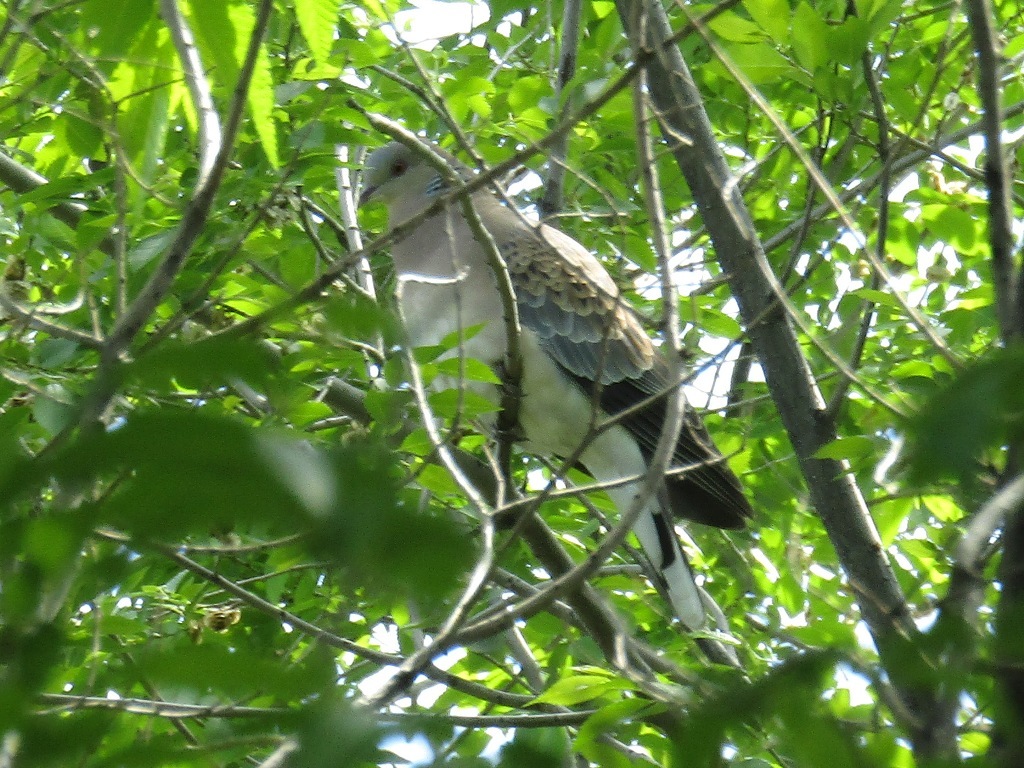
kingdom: Animalia
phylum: Chordata
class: Aves
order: Columbiformes
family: Columbidae
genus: Streptopelia
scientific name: Streptopelia turtur
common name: European turtle dove
